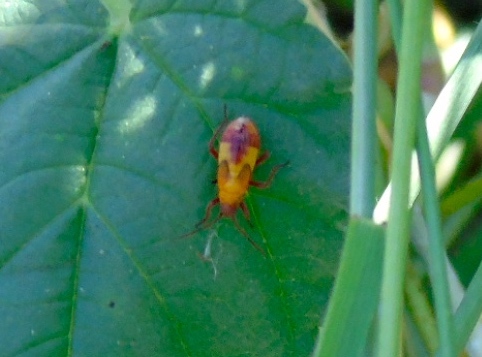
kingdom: Animalia
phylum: Arthropoda
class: Insecta
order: Hemiptera
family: Lygaeidae
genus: Oncopeltus
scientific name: Oncopeltus
